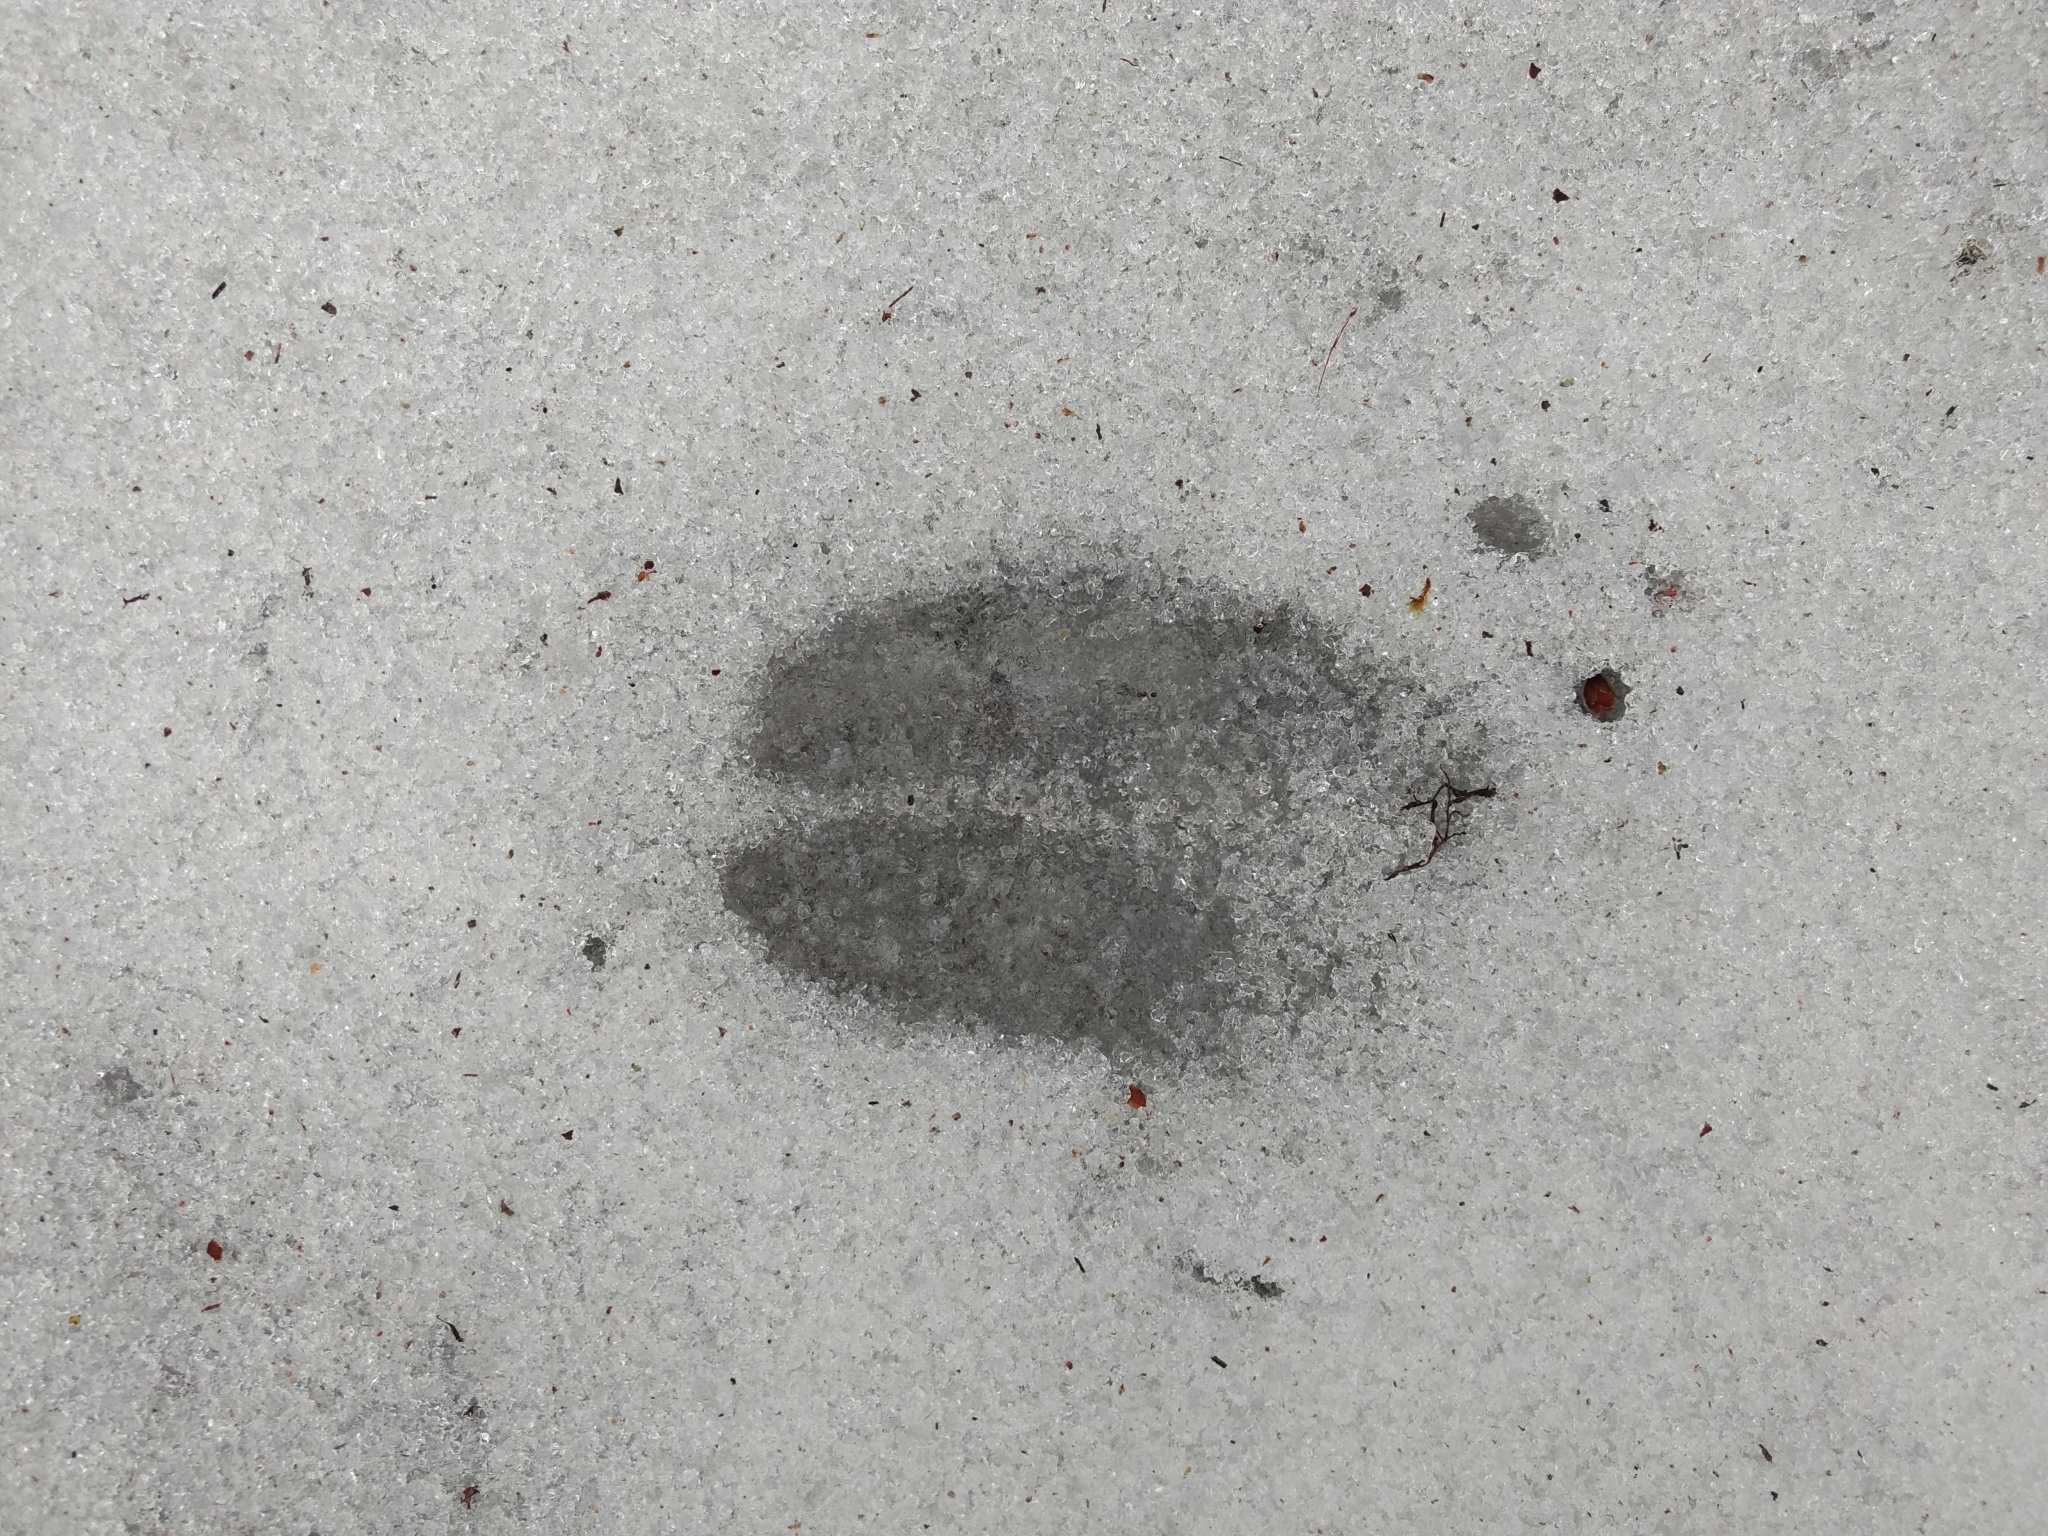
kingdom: Animalia
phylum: Chordata
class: Mammalia
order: Artiodactyla
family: Cervidae
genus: Odocoileus
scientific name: Odocoileus virginianus
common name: White-tailed deer
